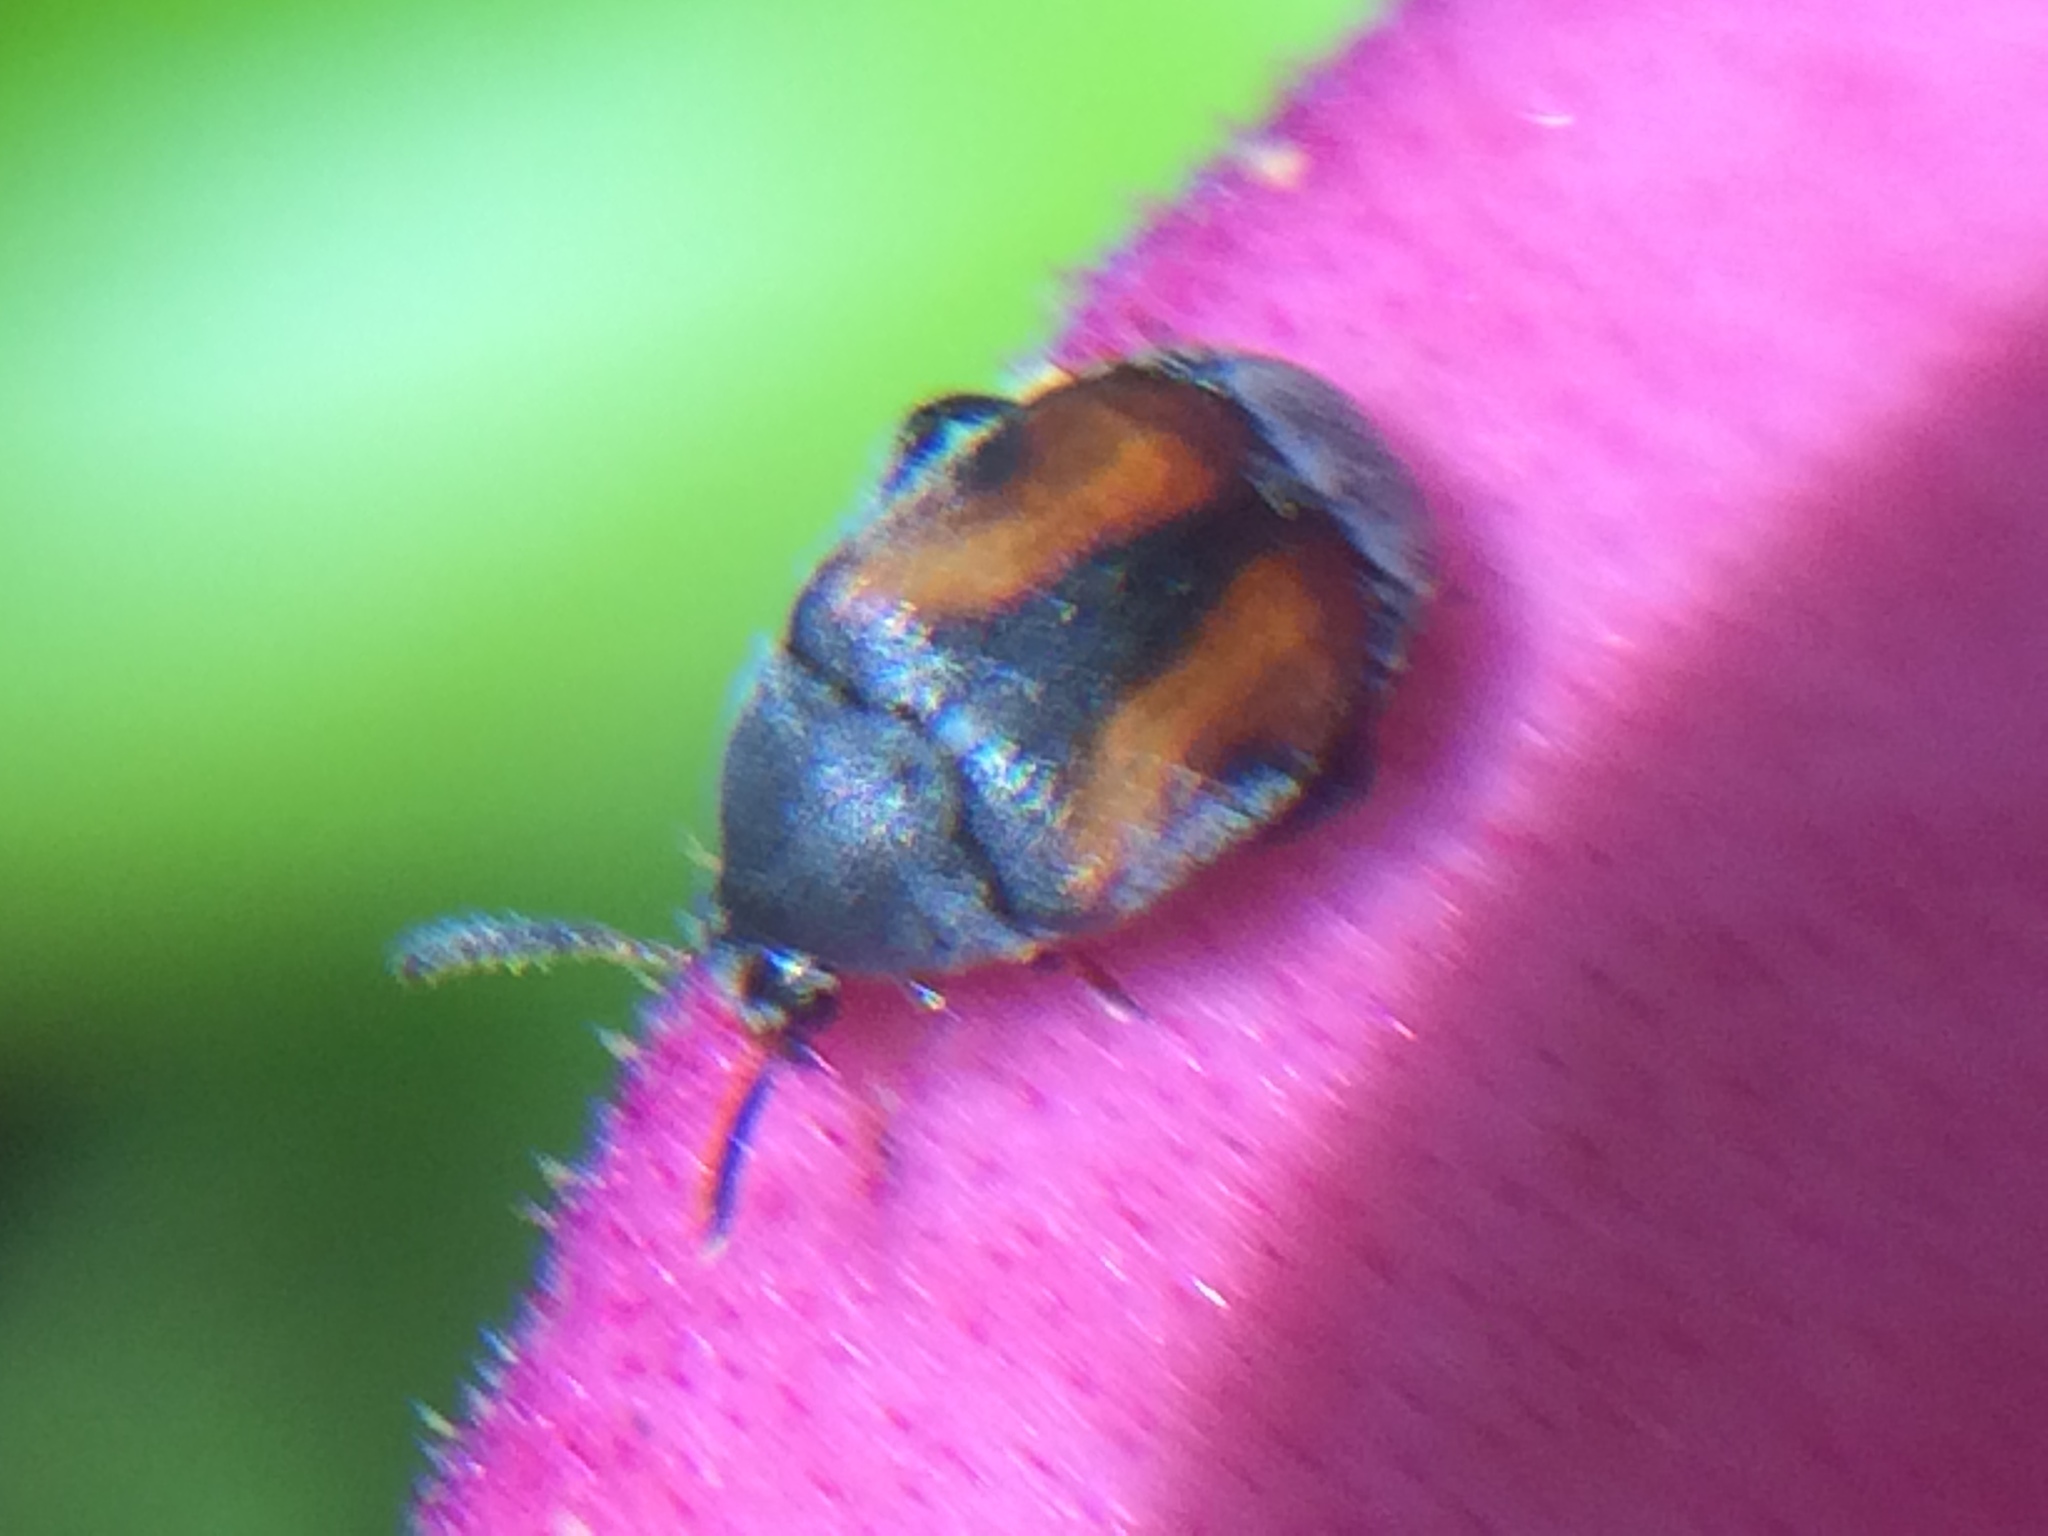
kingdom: Animalia
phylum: Arthropoda
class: Insecta
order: Coleoptera
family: Chrysomelidae
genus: Stator
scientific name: Stator limbatus
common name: Leaf beetle
